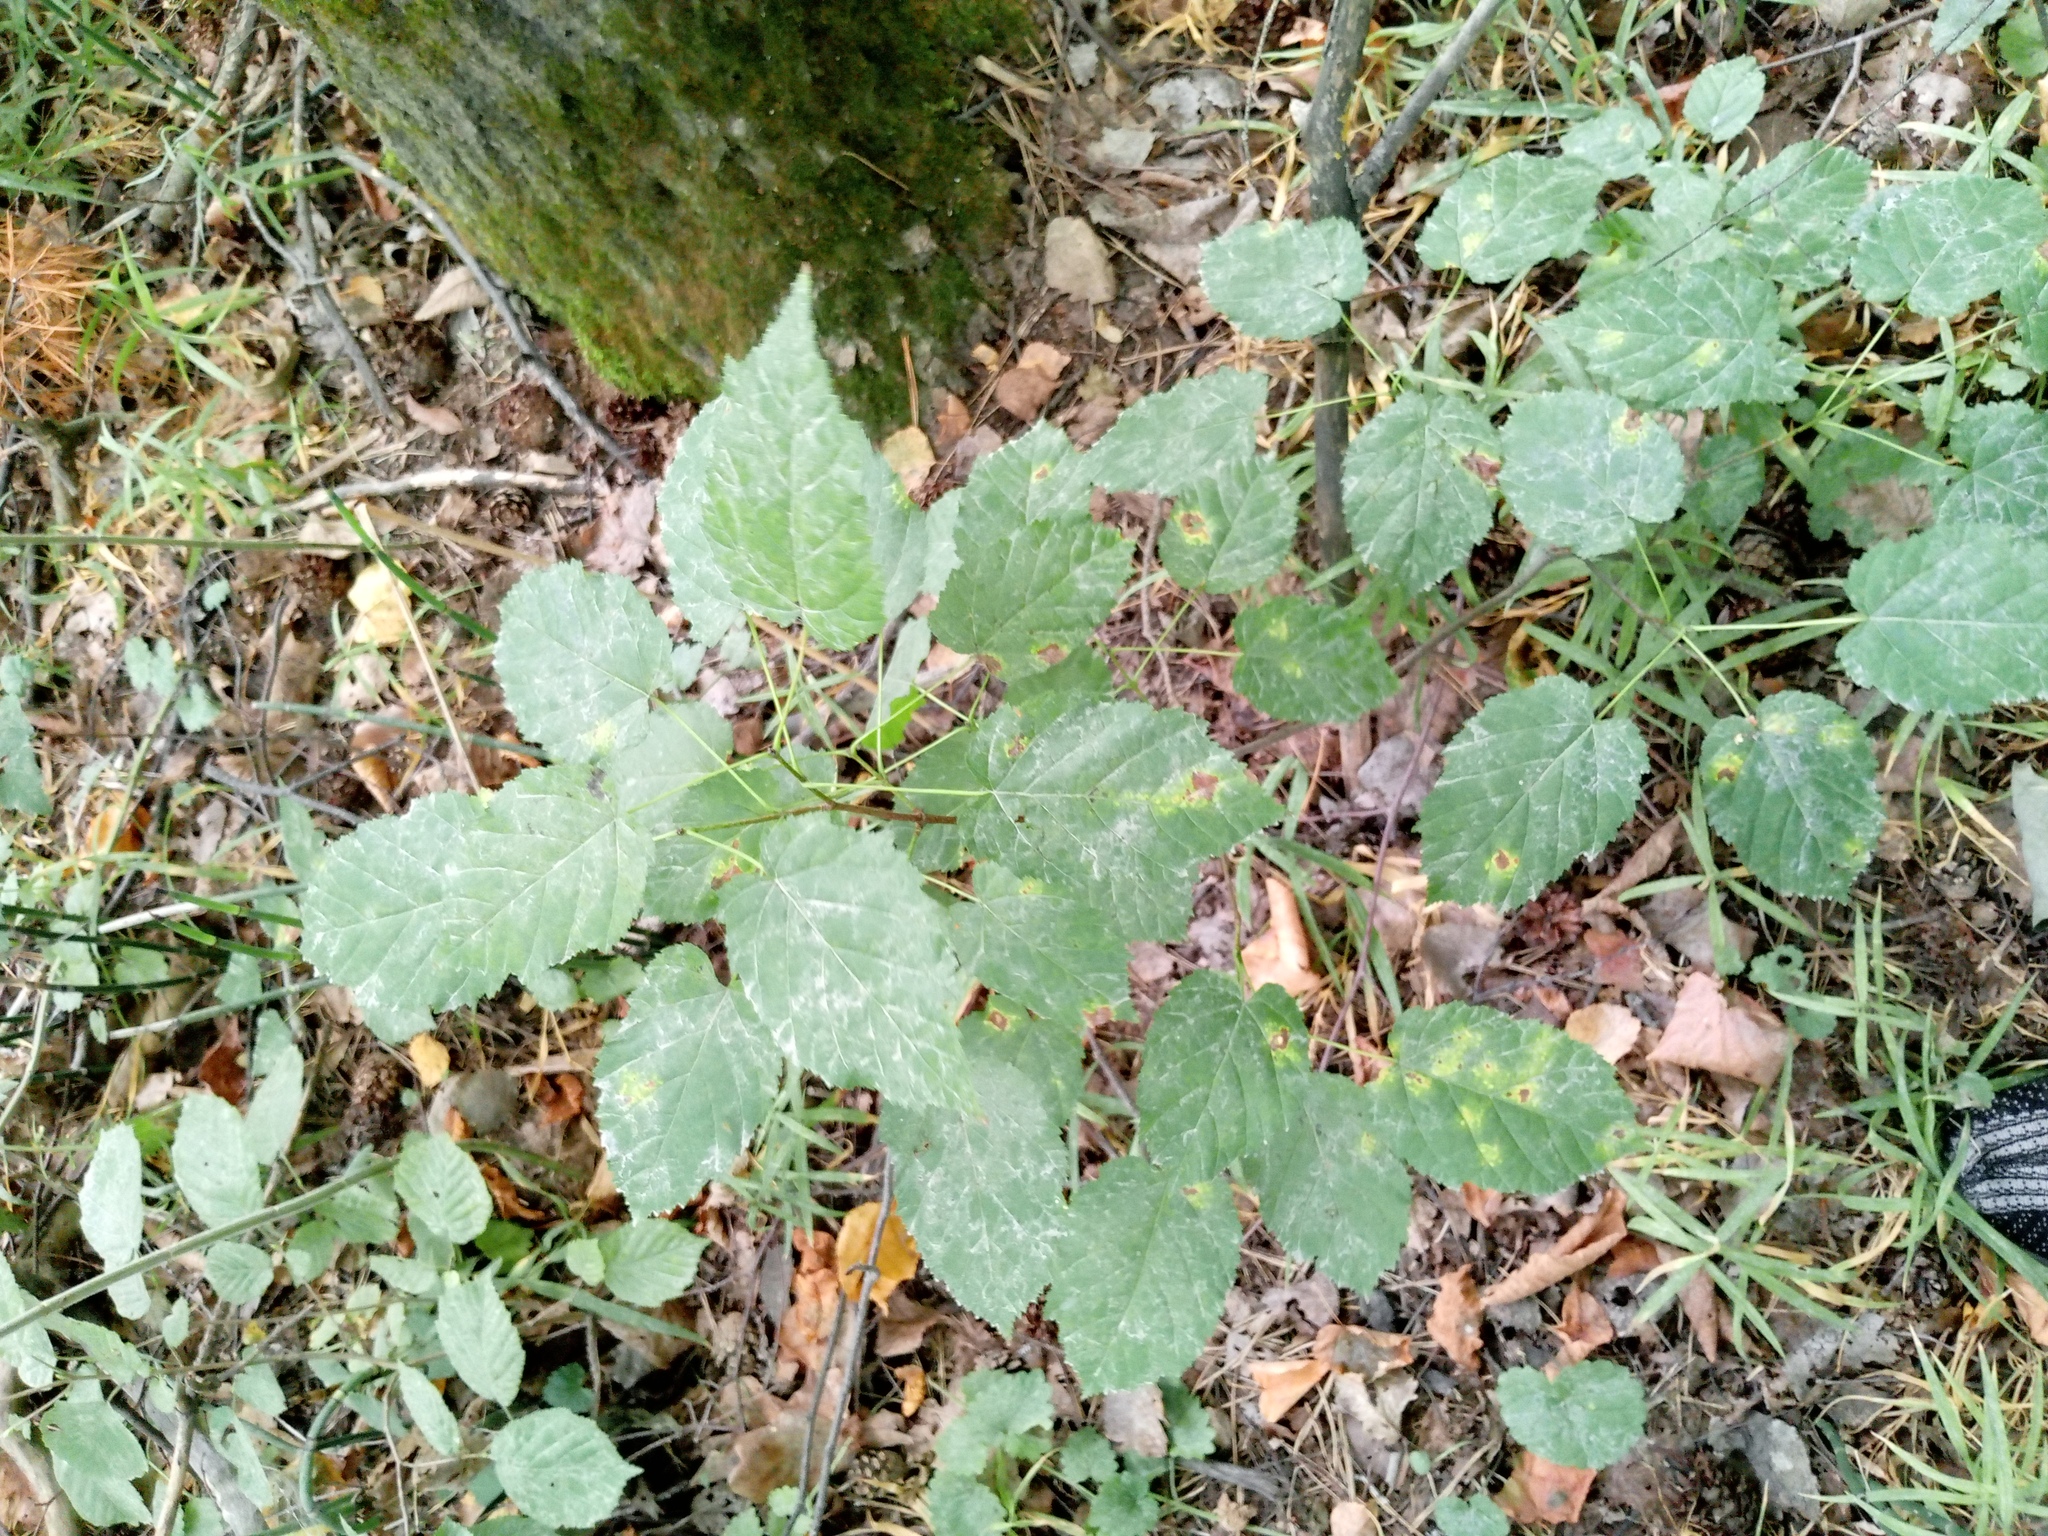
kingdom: Plantae
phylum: Tracheophyta
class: Magnoliopsida
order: Sapindales
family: Sapindaceae
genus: Acer
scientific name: Acer tataricum
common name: Tartar maple
